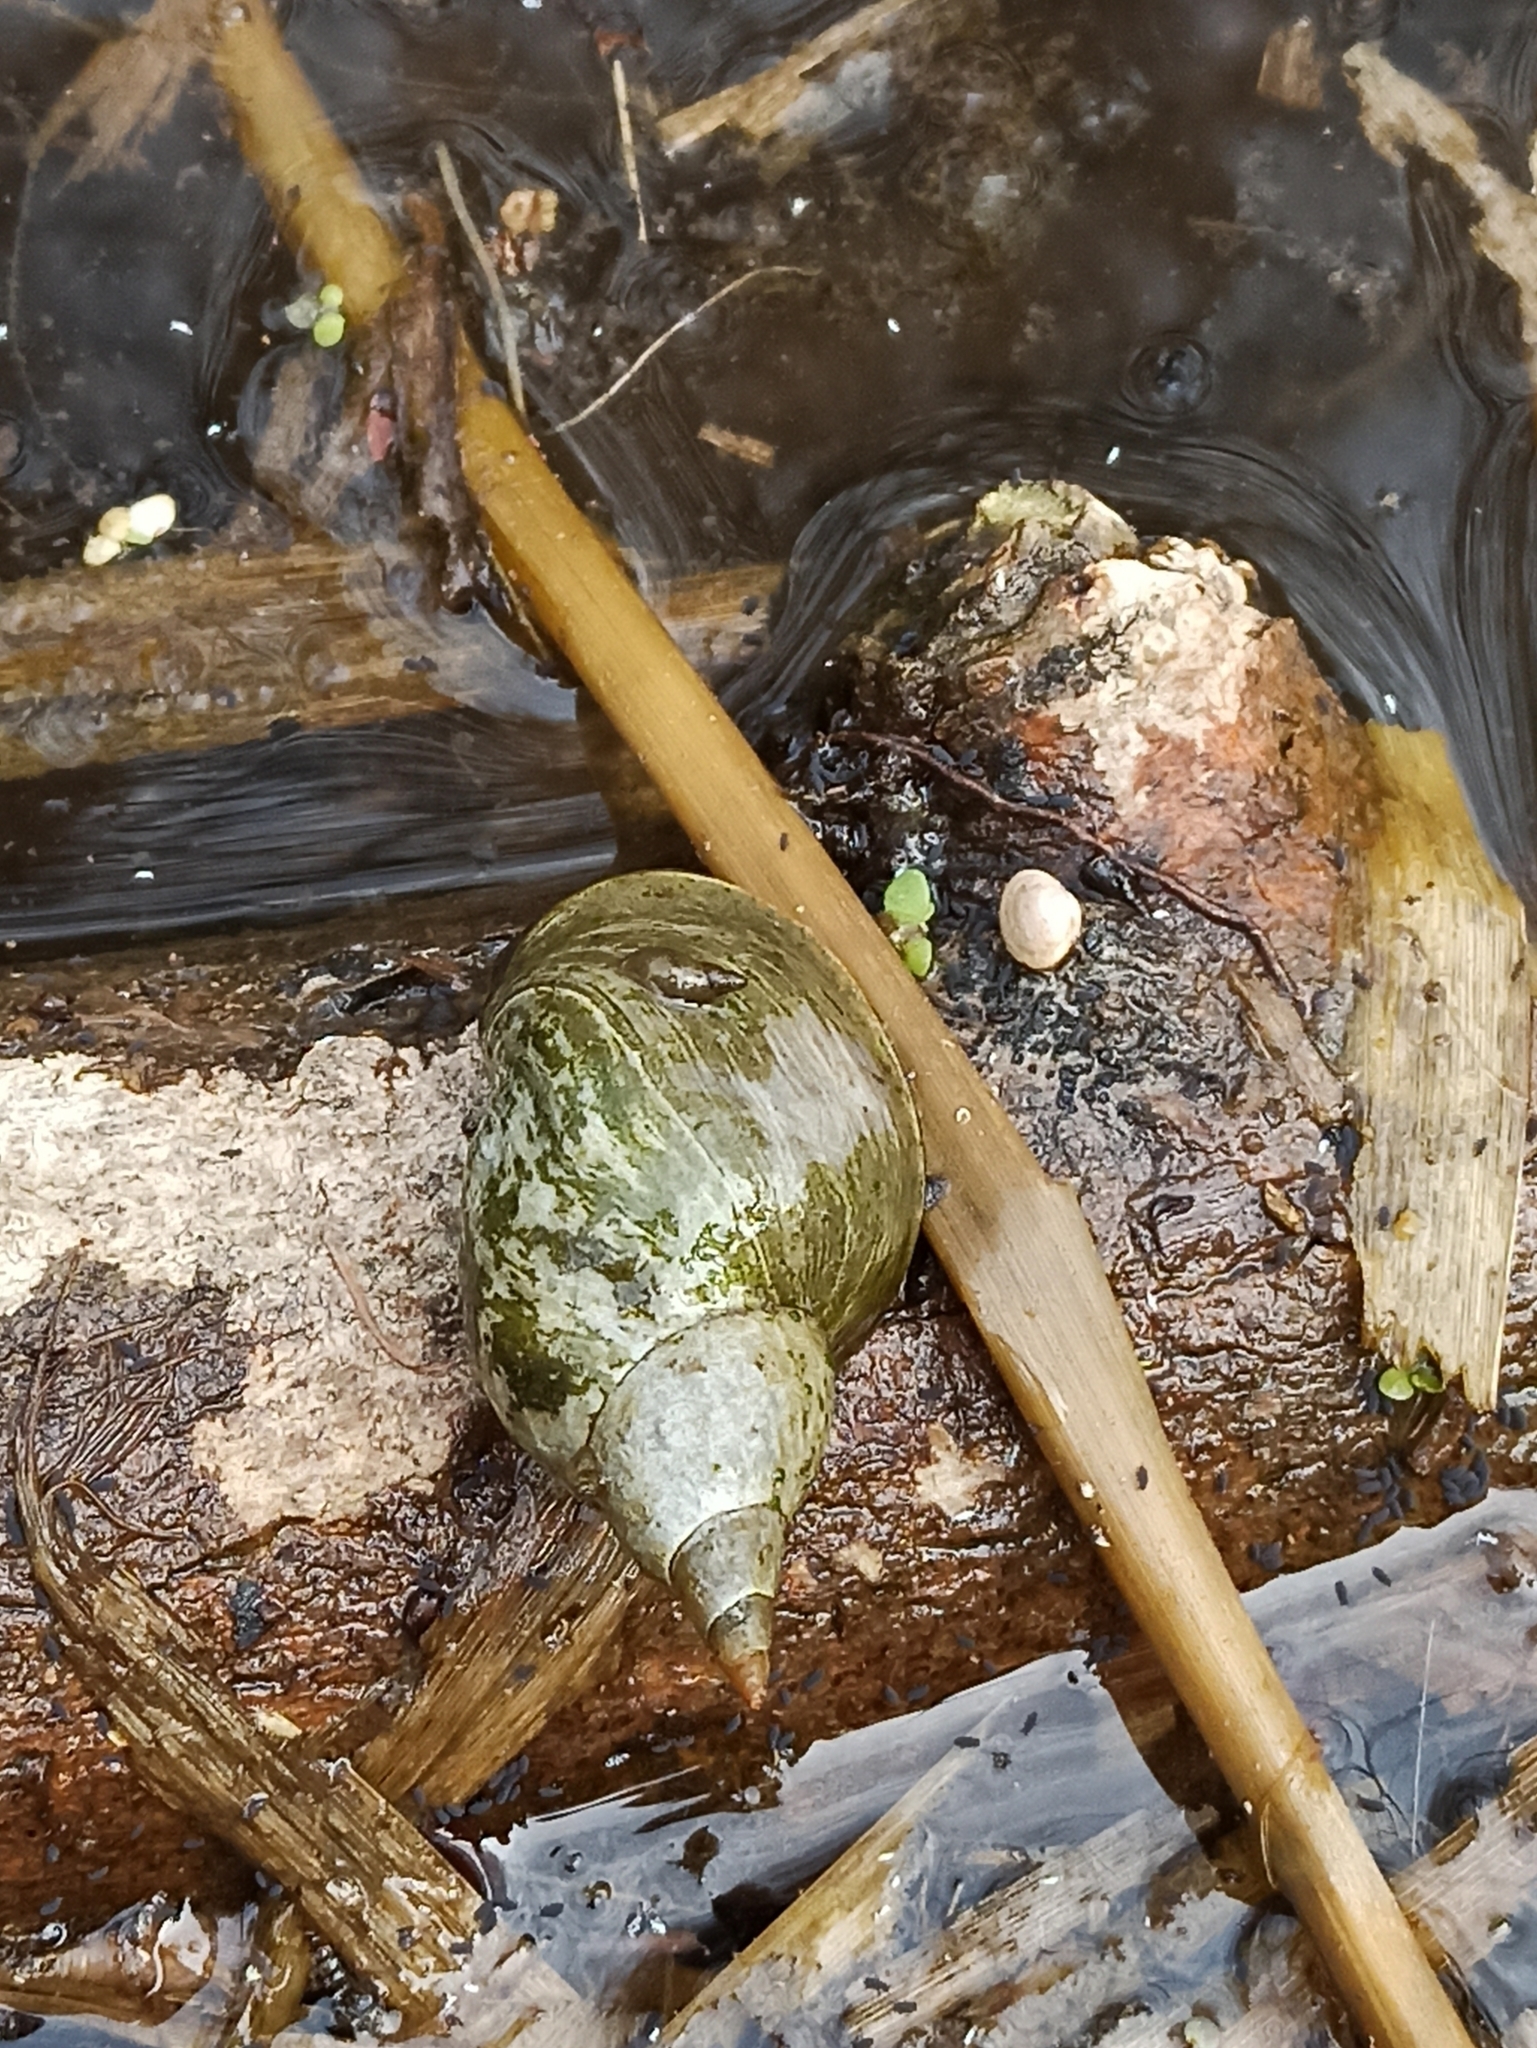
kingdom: Animalia
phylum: Mollusca
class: Gastropoda
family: Lymnaeidae
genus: Lymnaea
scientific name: Lymnaea stagnalis
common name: Great pond snail
